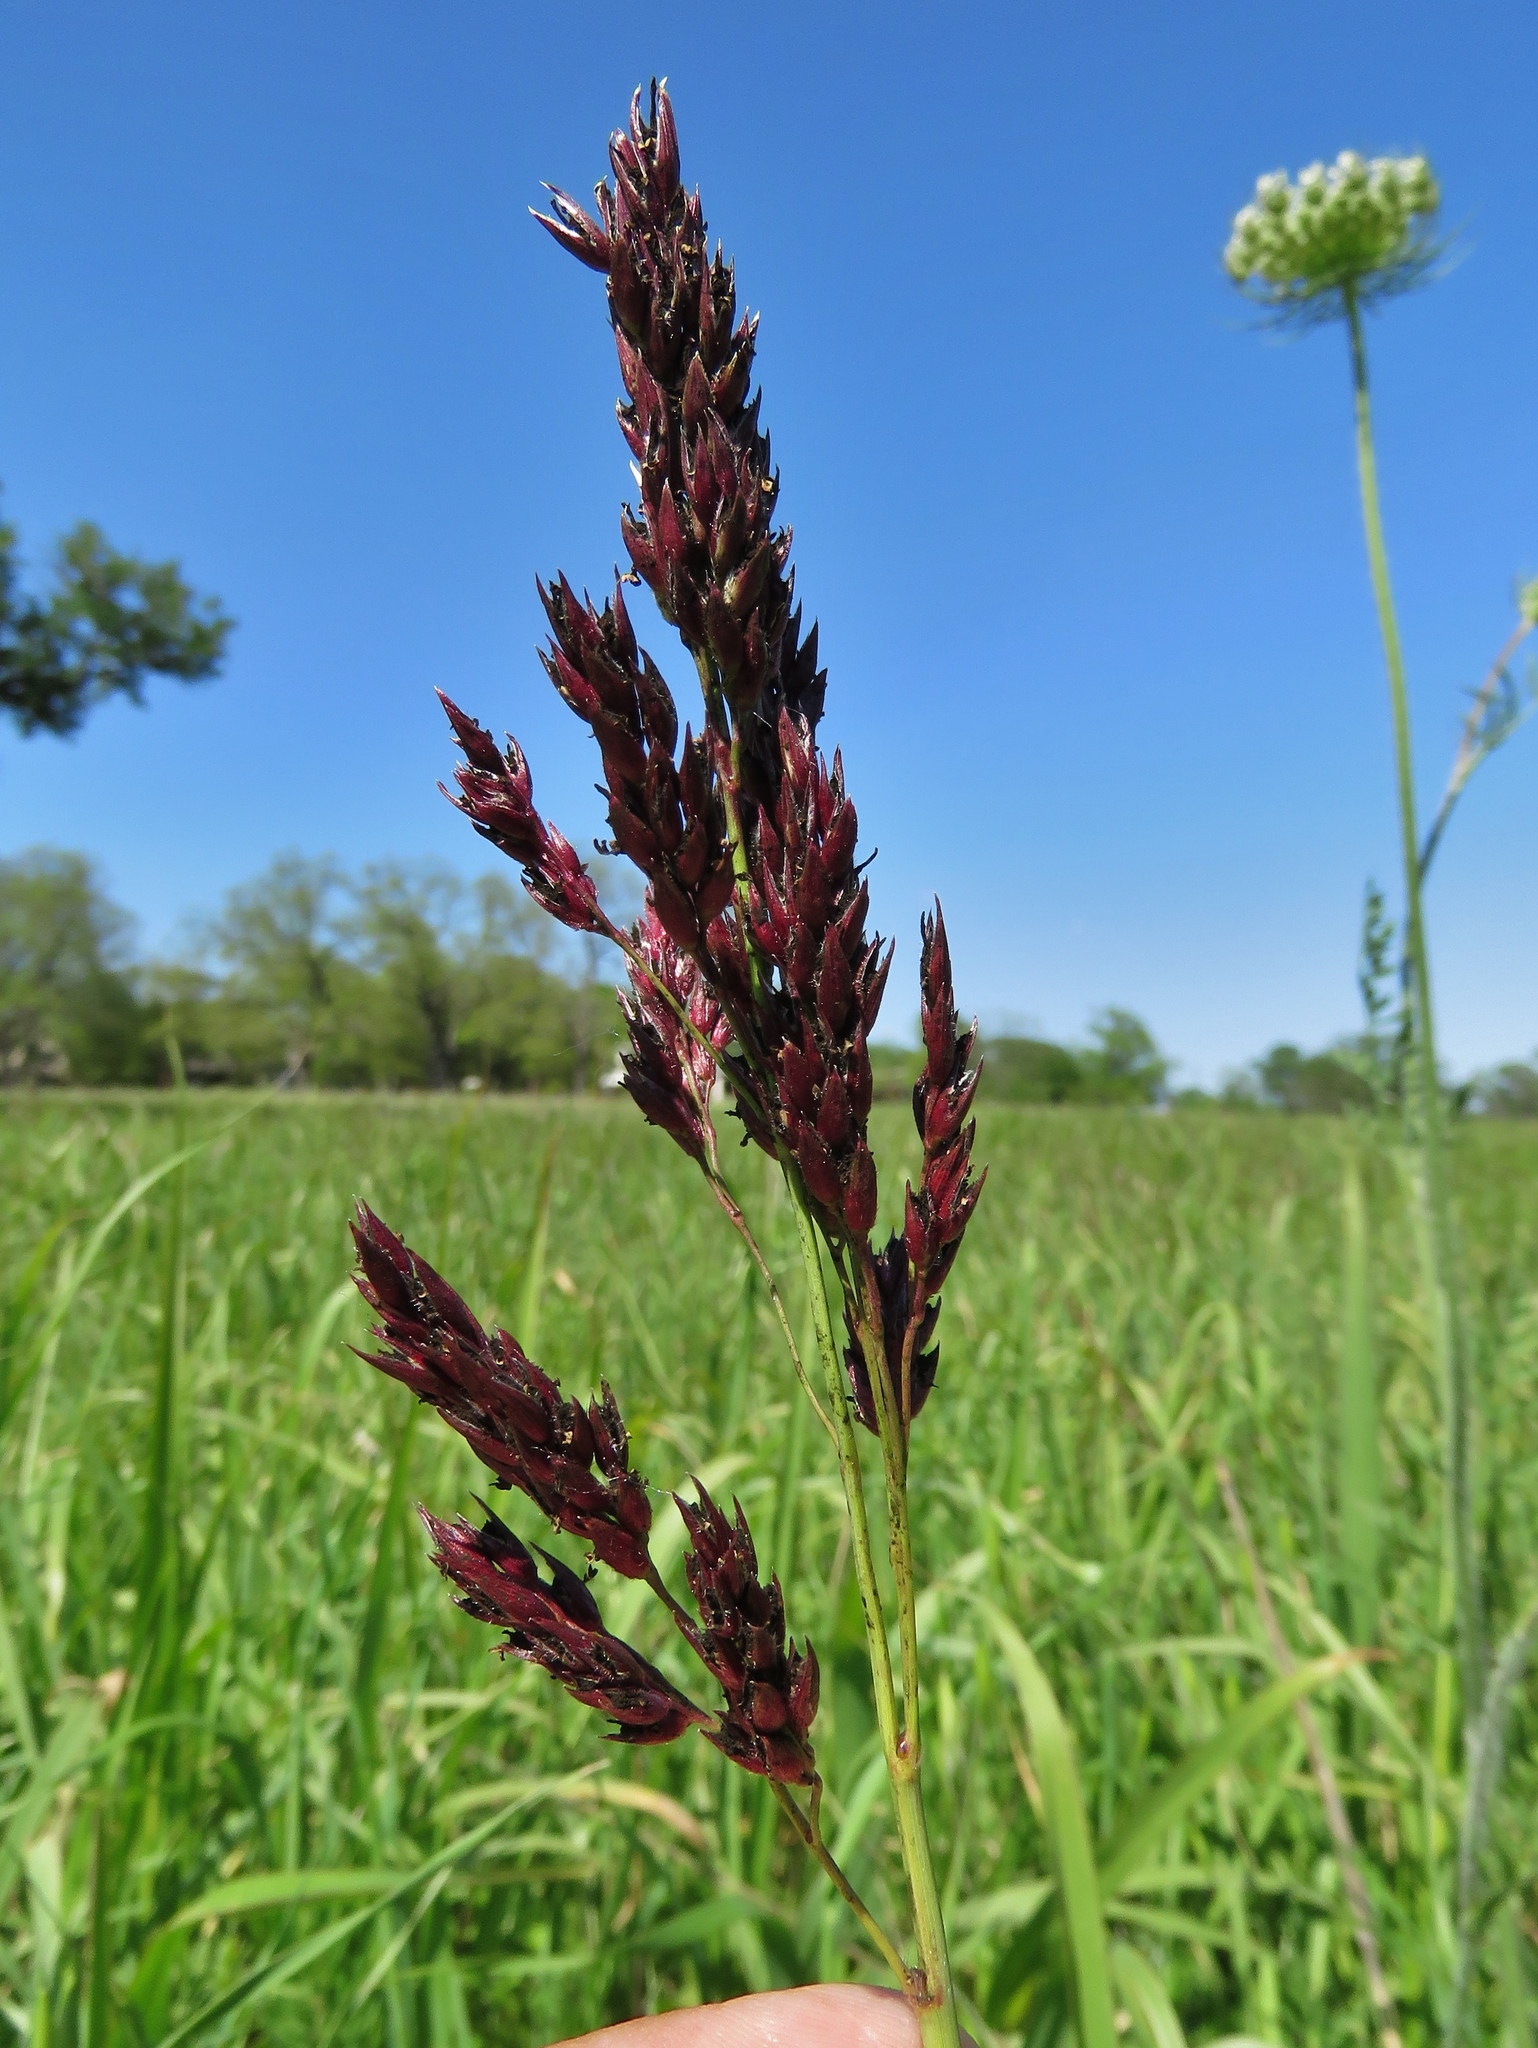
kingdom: Plantae
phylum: Tracheophyta
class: Liliopsida
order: Poales
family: Poaceae
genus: Sorghum
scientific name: Sorghum halepense
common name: Johnson-grass
